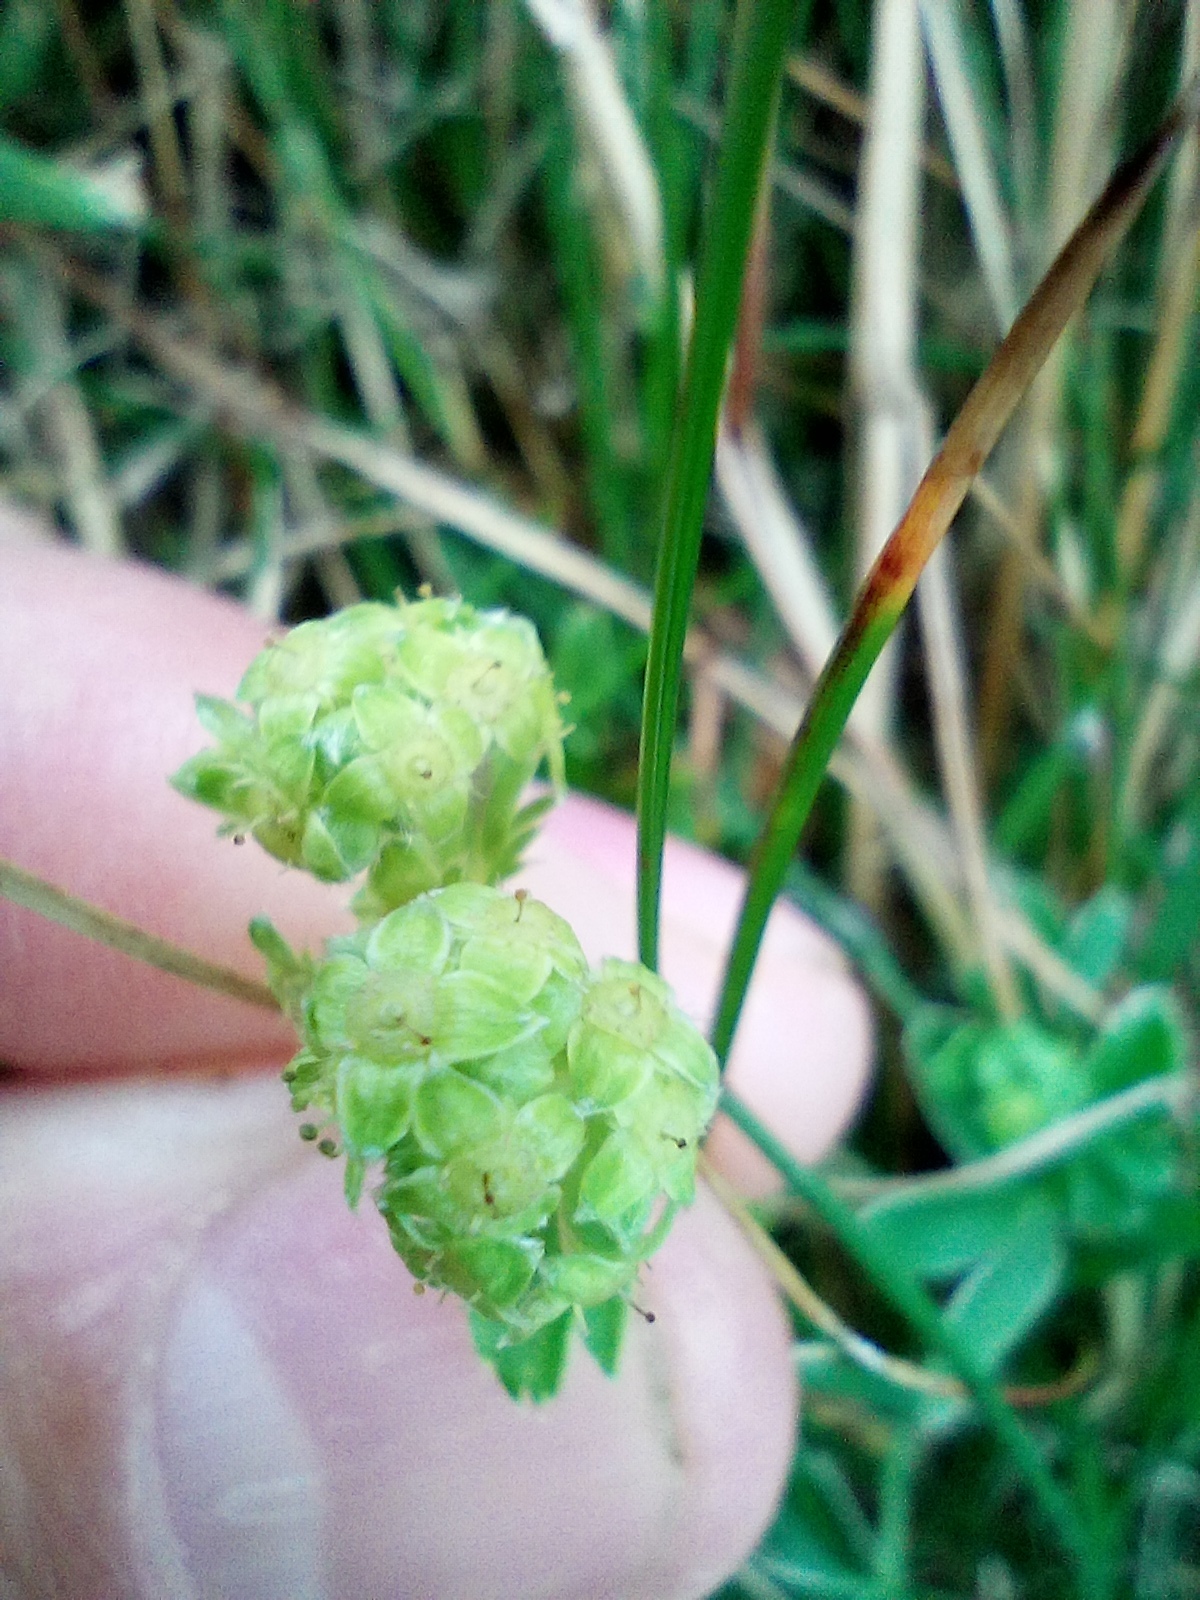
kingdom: Plantae
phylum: Tracheophyta
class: Magnoliopsida
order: Rosales
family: Rosaceae
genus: Alchemilla
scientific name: Alchemilla alpina
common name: Alpine lady's-mantle
